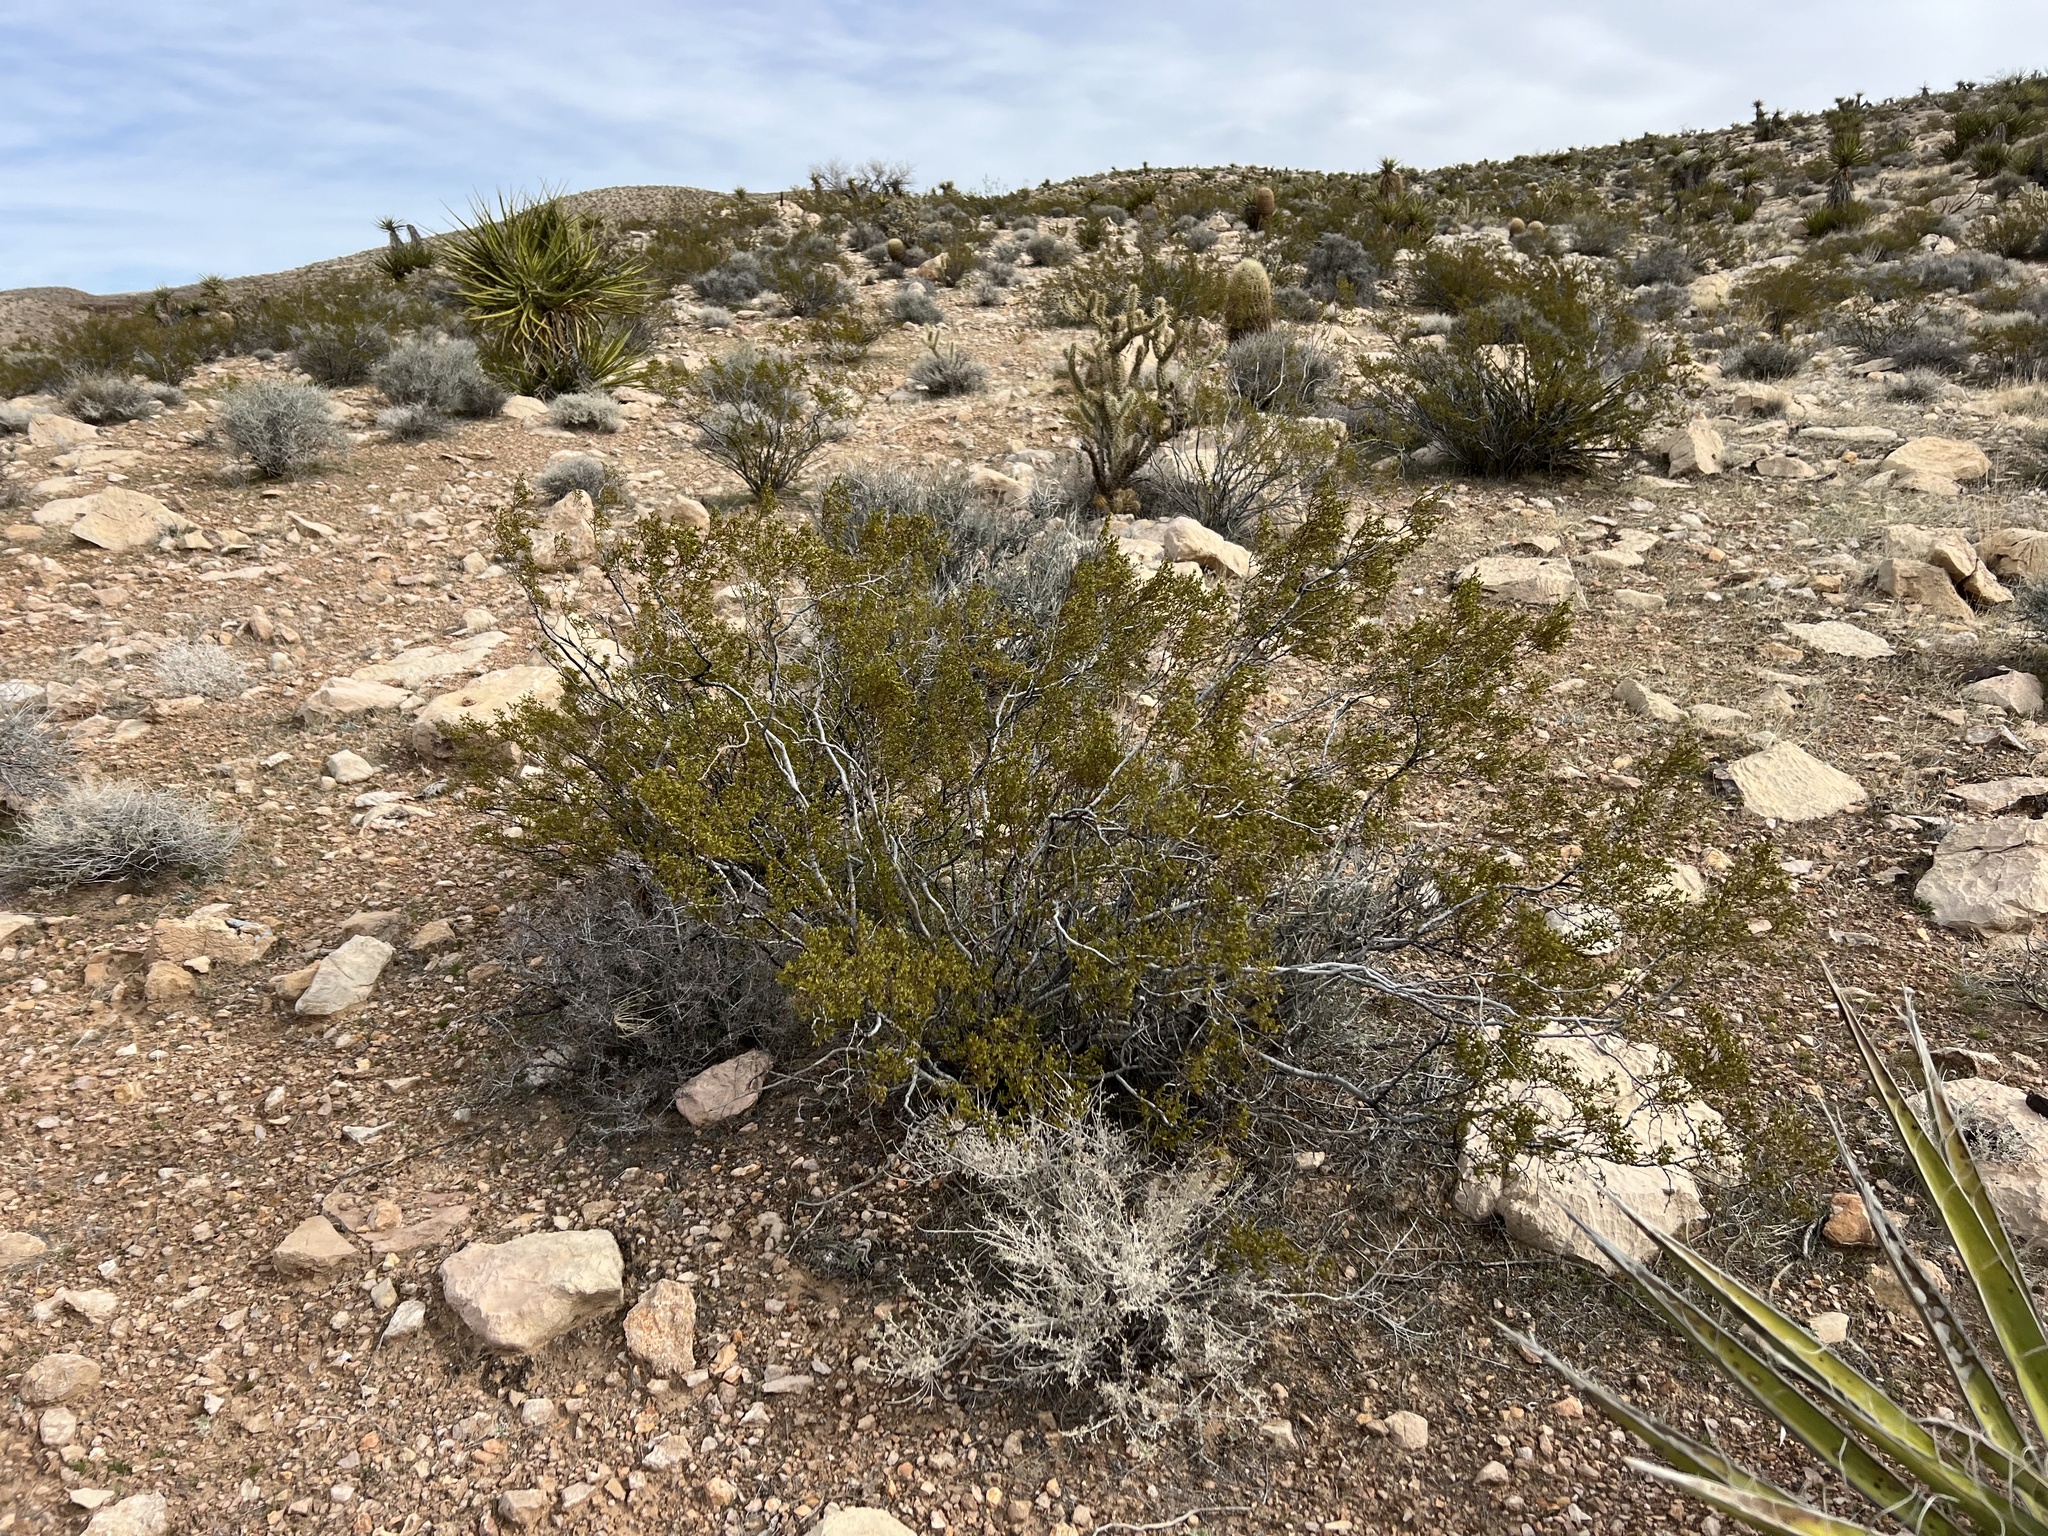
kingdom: Plantae
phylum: Tracheophyta
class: Magnoliopsida
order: Zygophyllales
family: Zygophyllaceae
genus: Larrea
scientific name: Larrea tridentata
